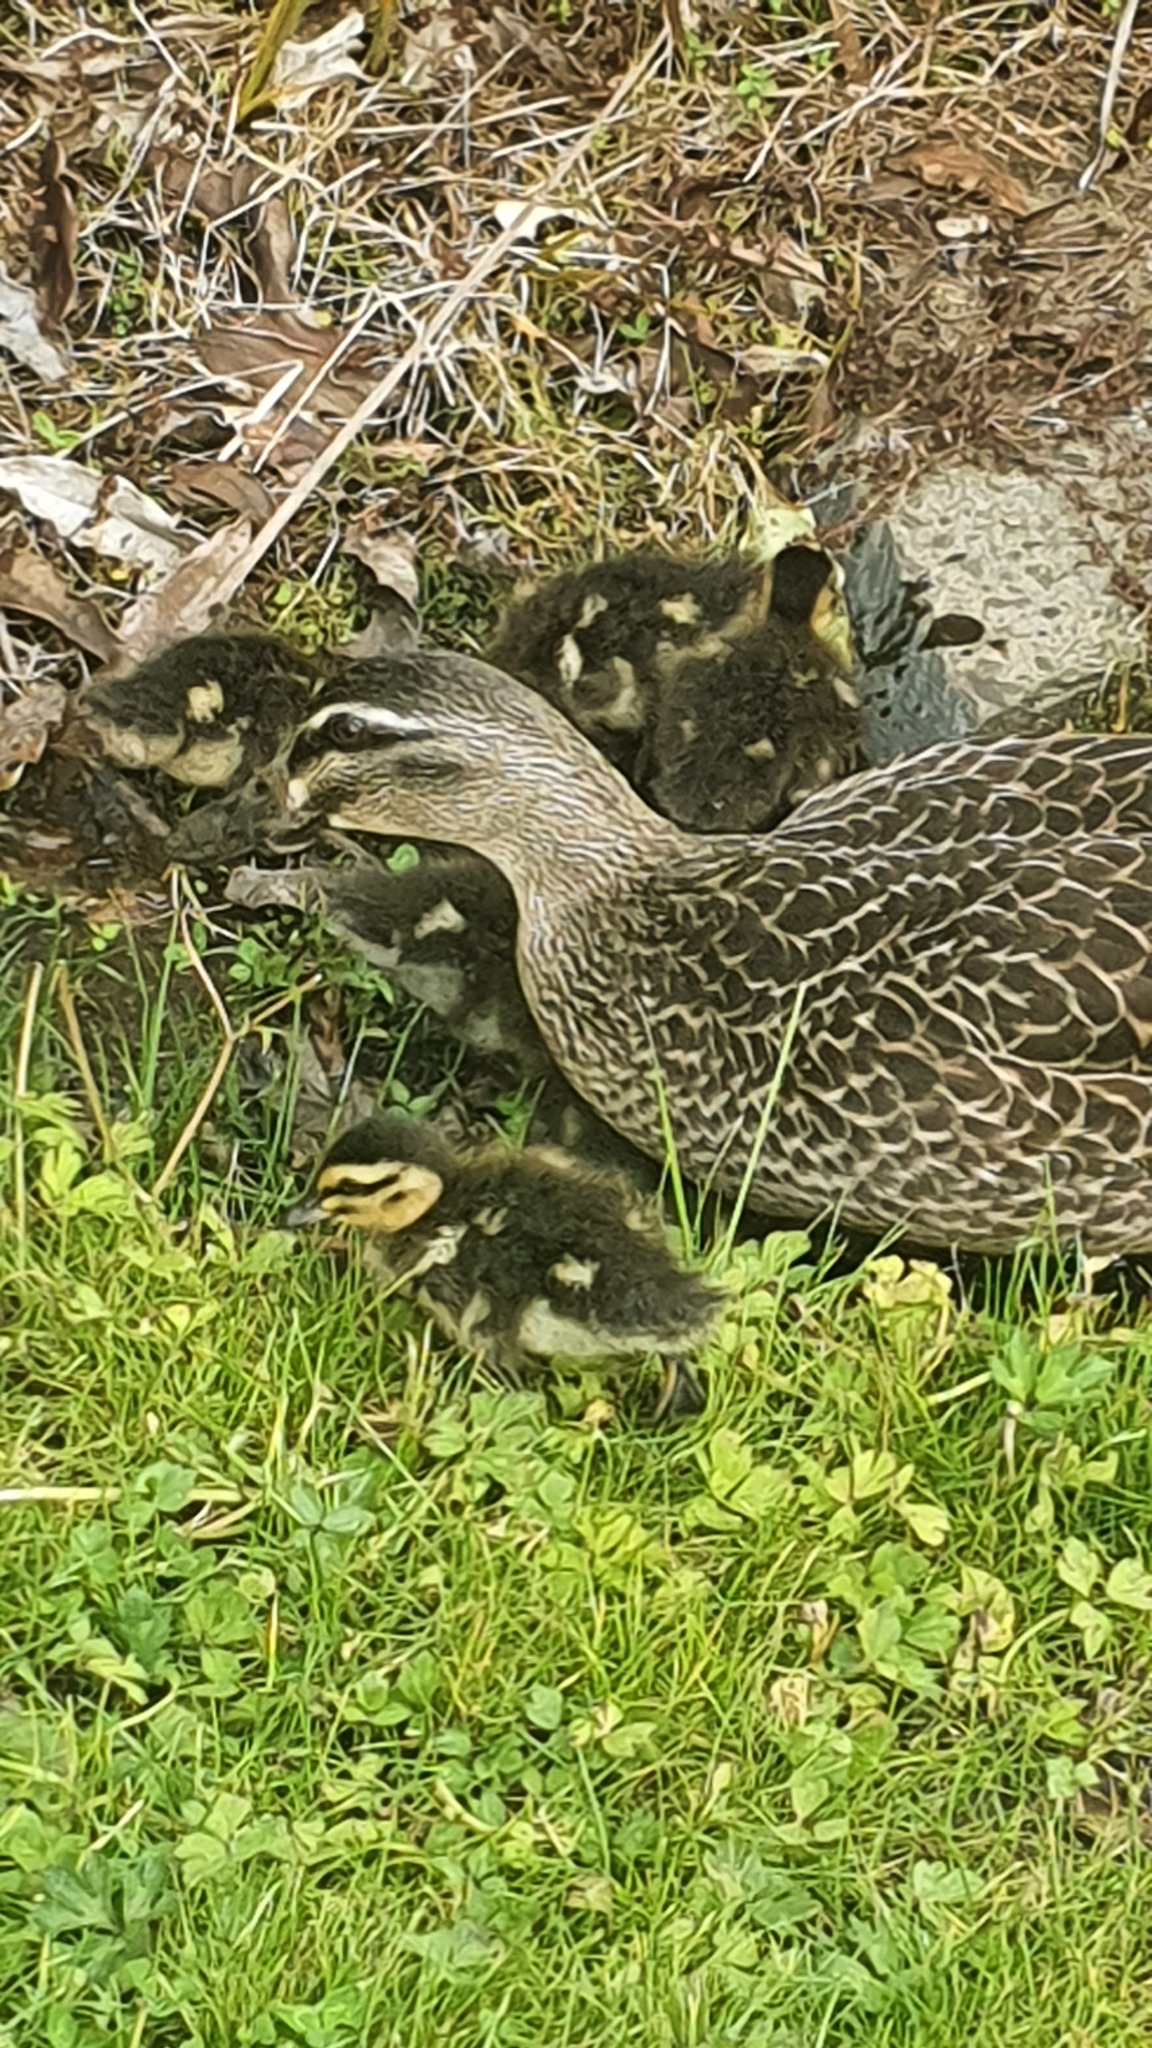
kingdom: Animalia
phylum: Chordata
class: Aves
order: Anseriformes
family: Anatidae
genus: Anas
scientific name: Anas
